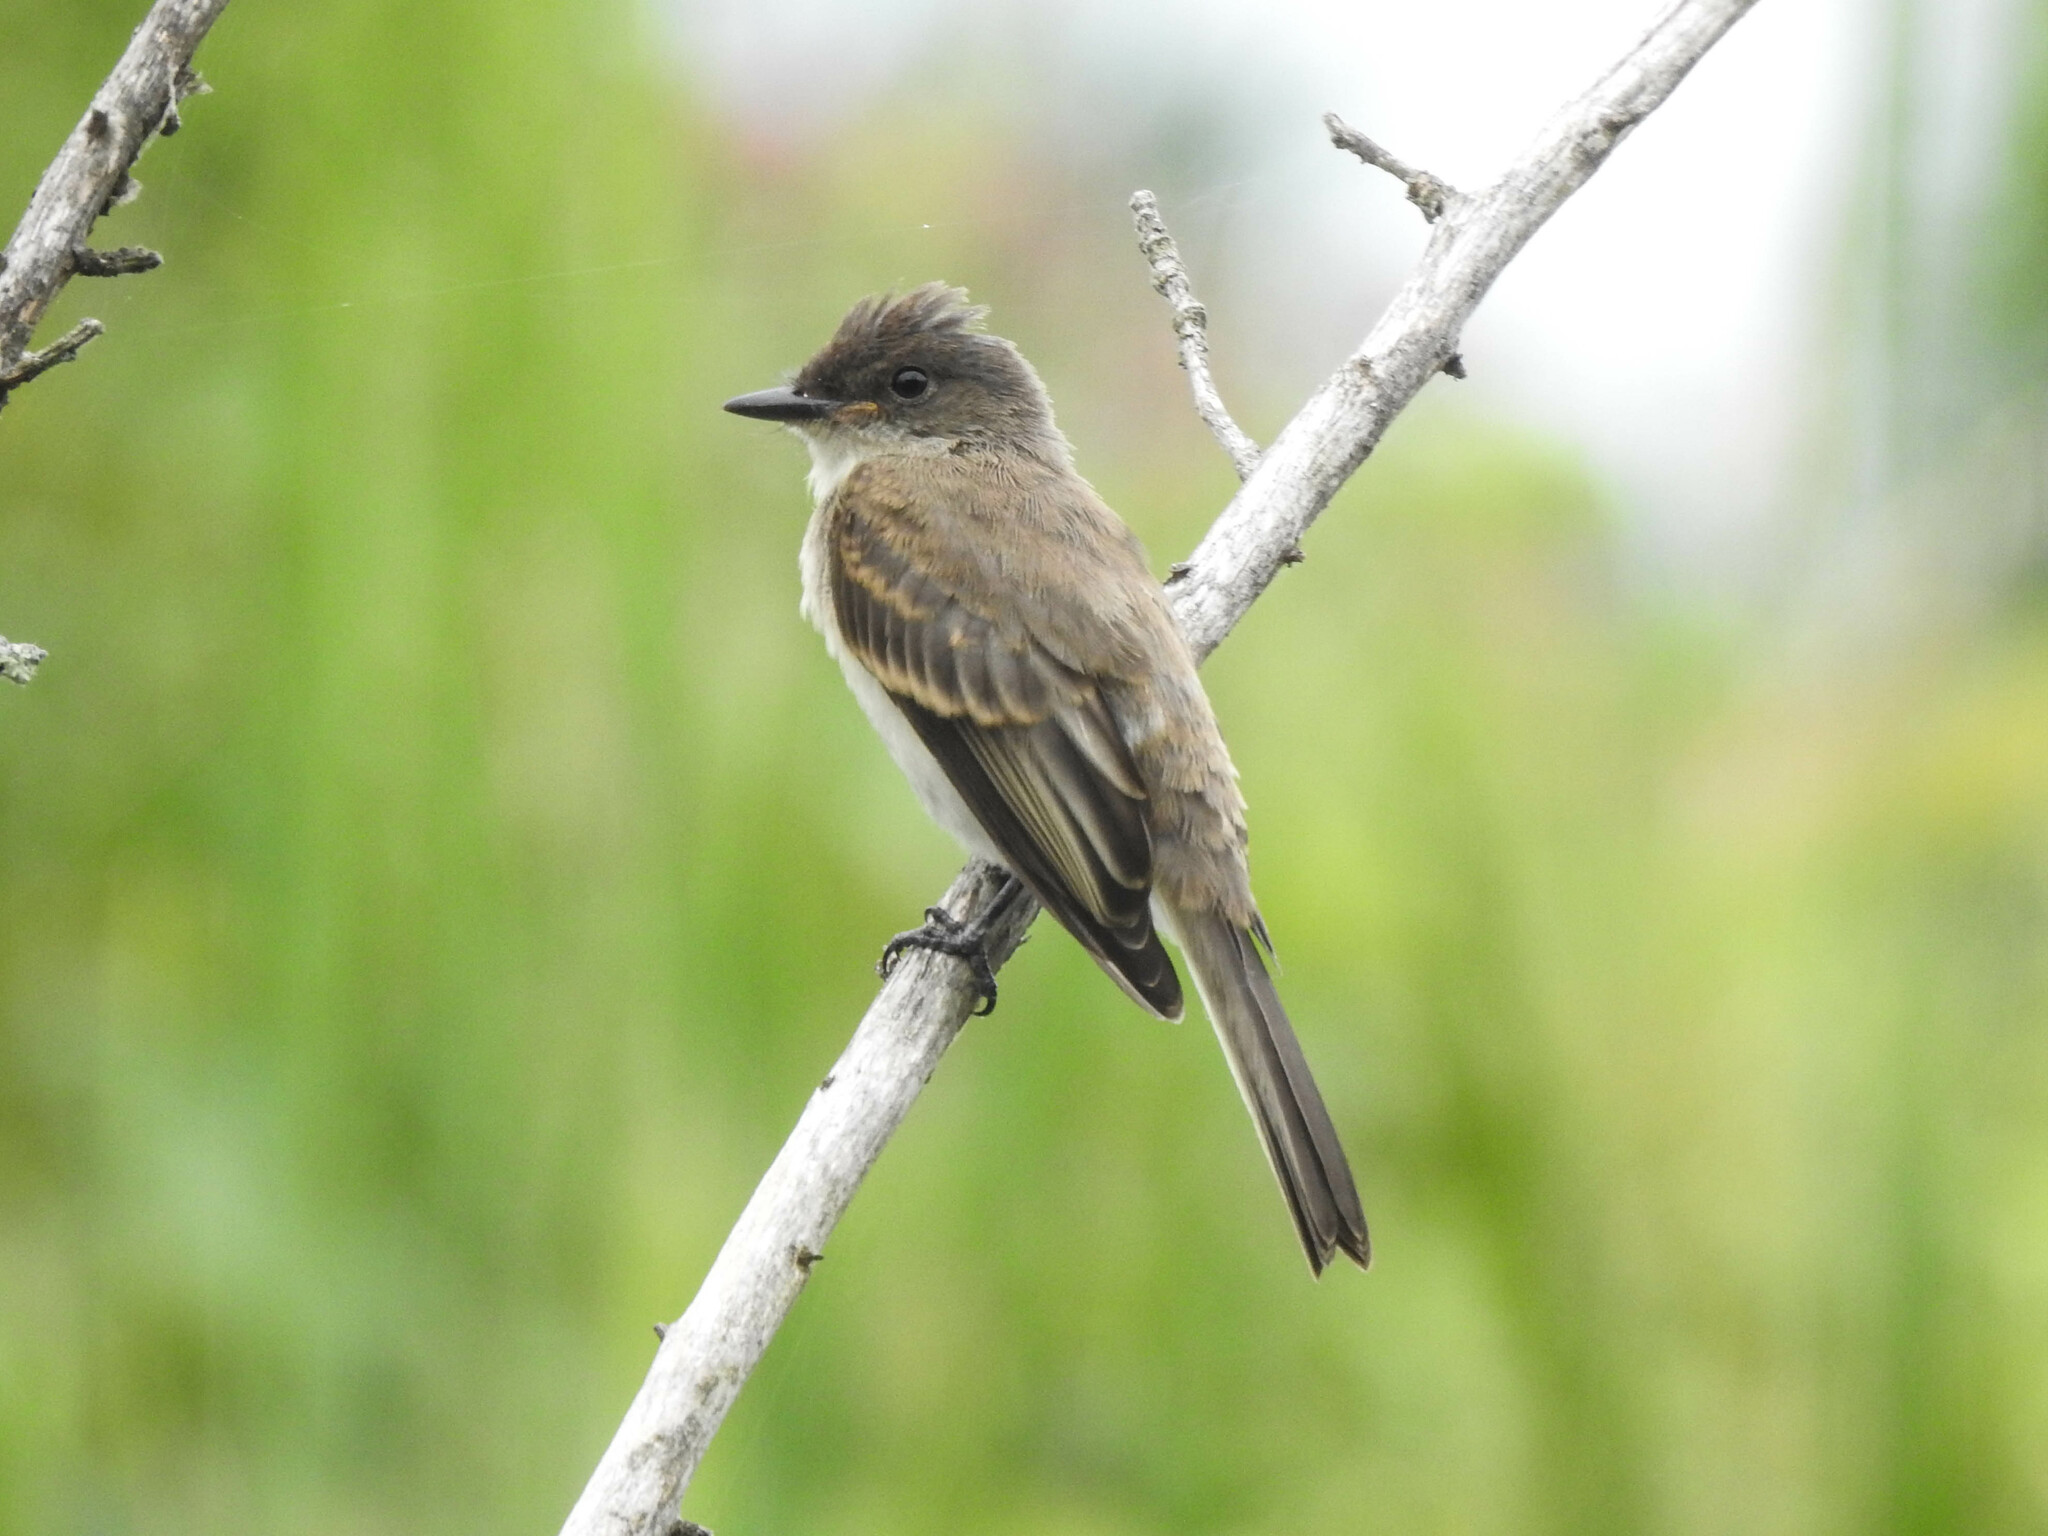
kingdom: Animalia
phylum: Chordata
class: Aves
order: Passeriformes
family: Tyrannidae
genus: Sayornis
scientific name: Sayornis phoebe
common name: Eastern phoebe
